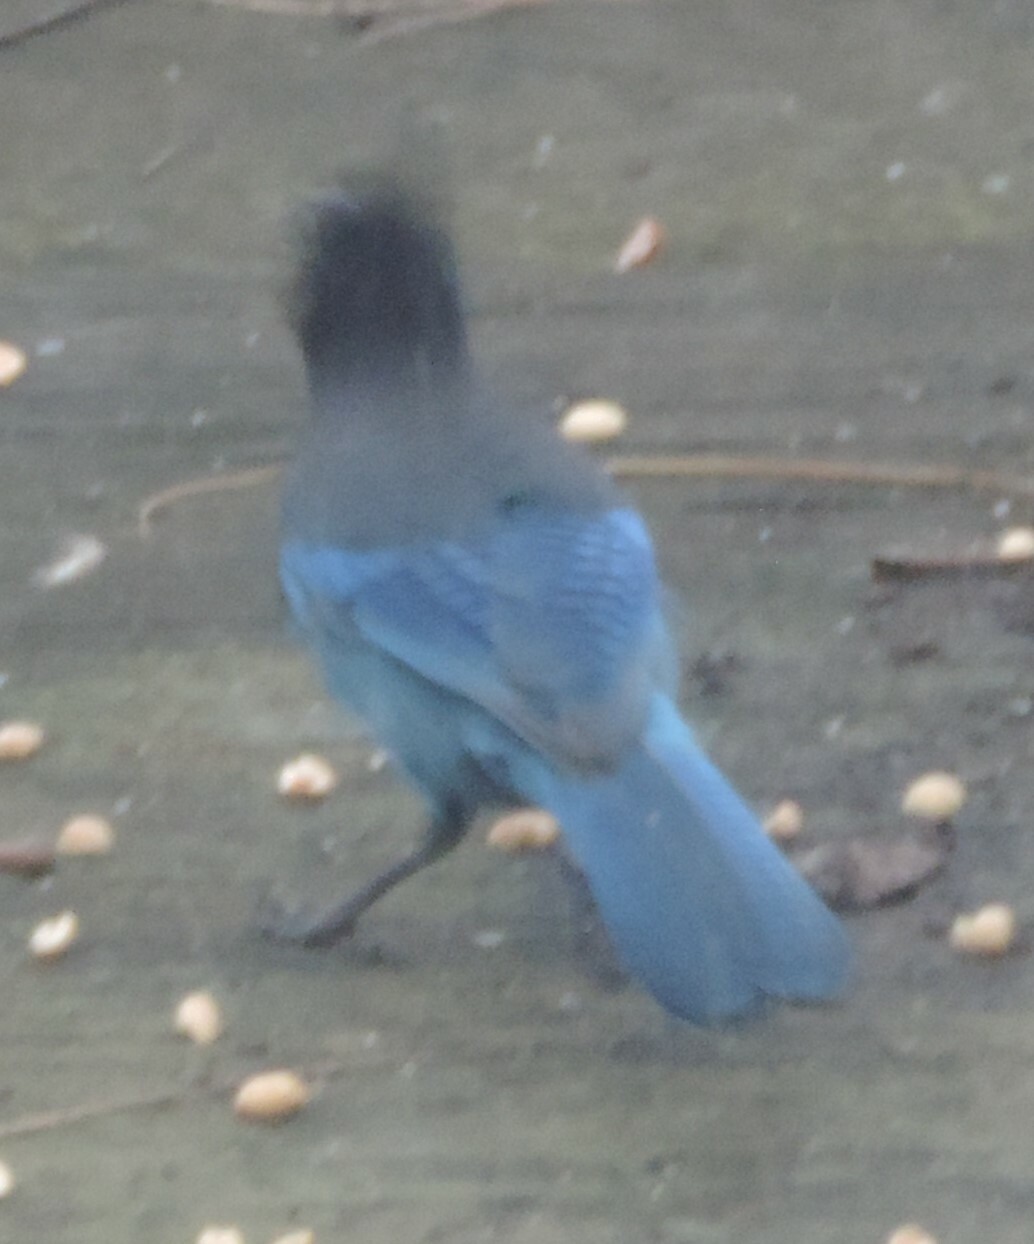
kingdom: Animalia
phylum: Chordata
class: Aves
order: Passeriformes
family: Corvidae
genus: Cyanocitta
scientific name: Cyanocitta stelleri
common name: Steller's jay
